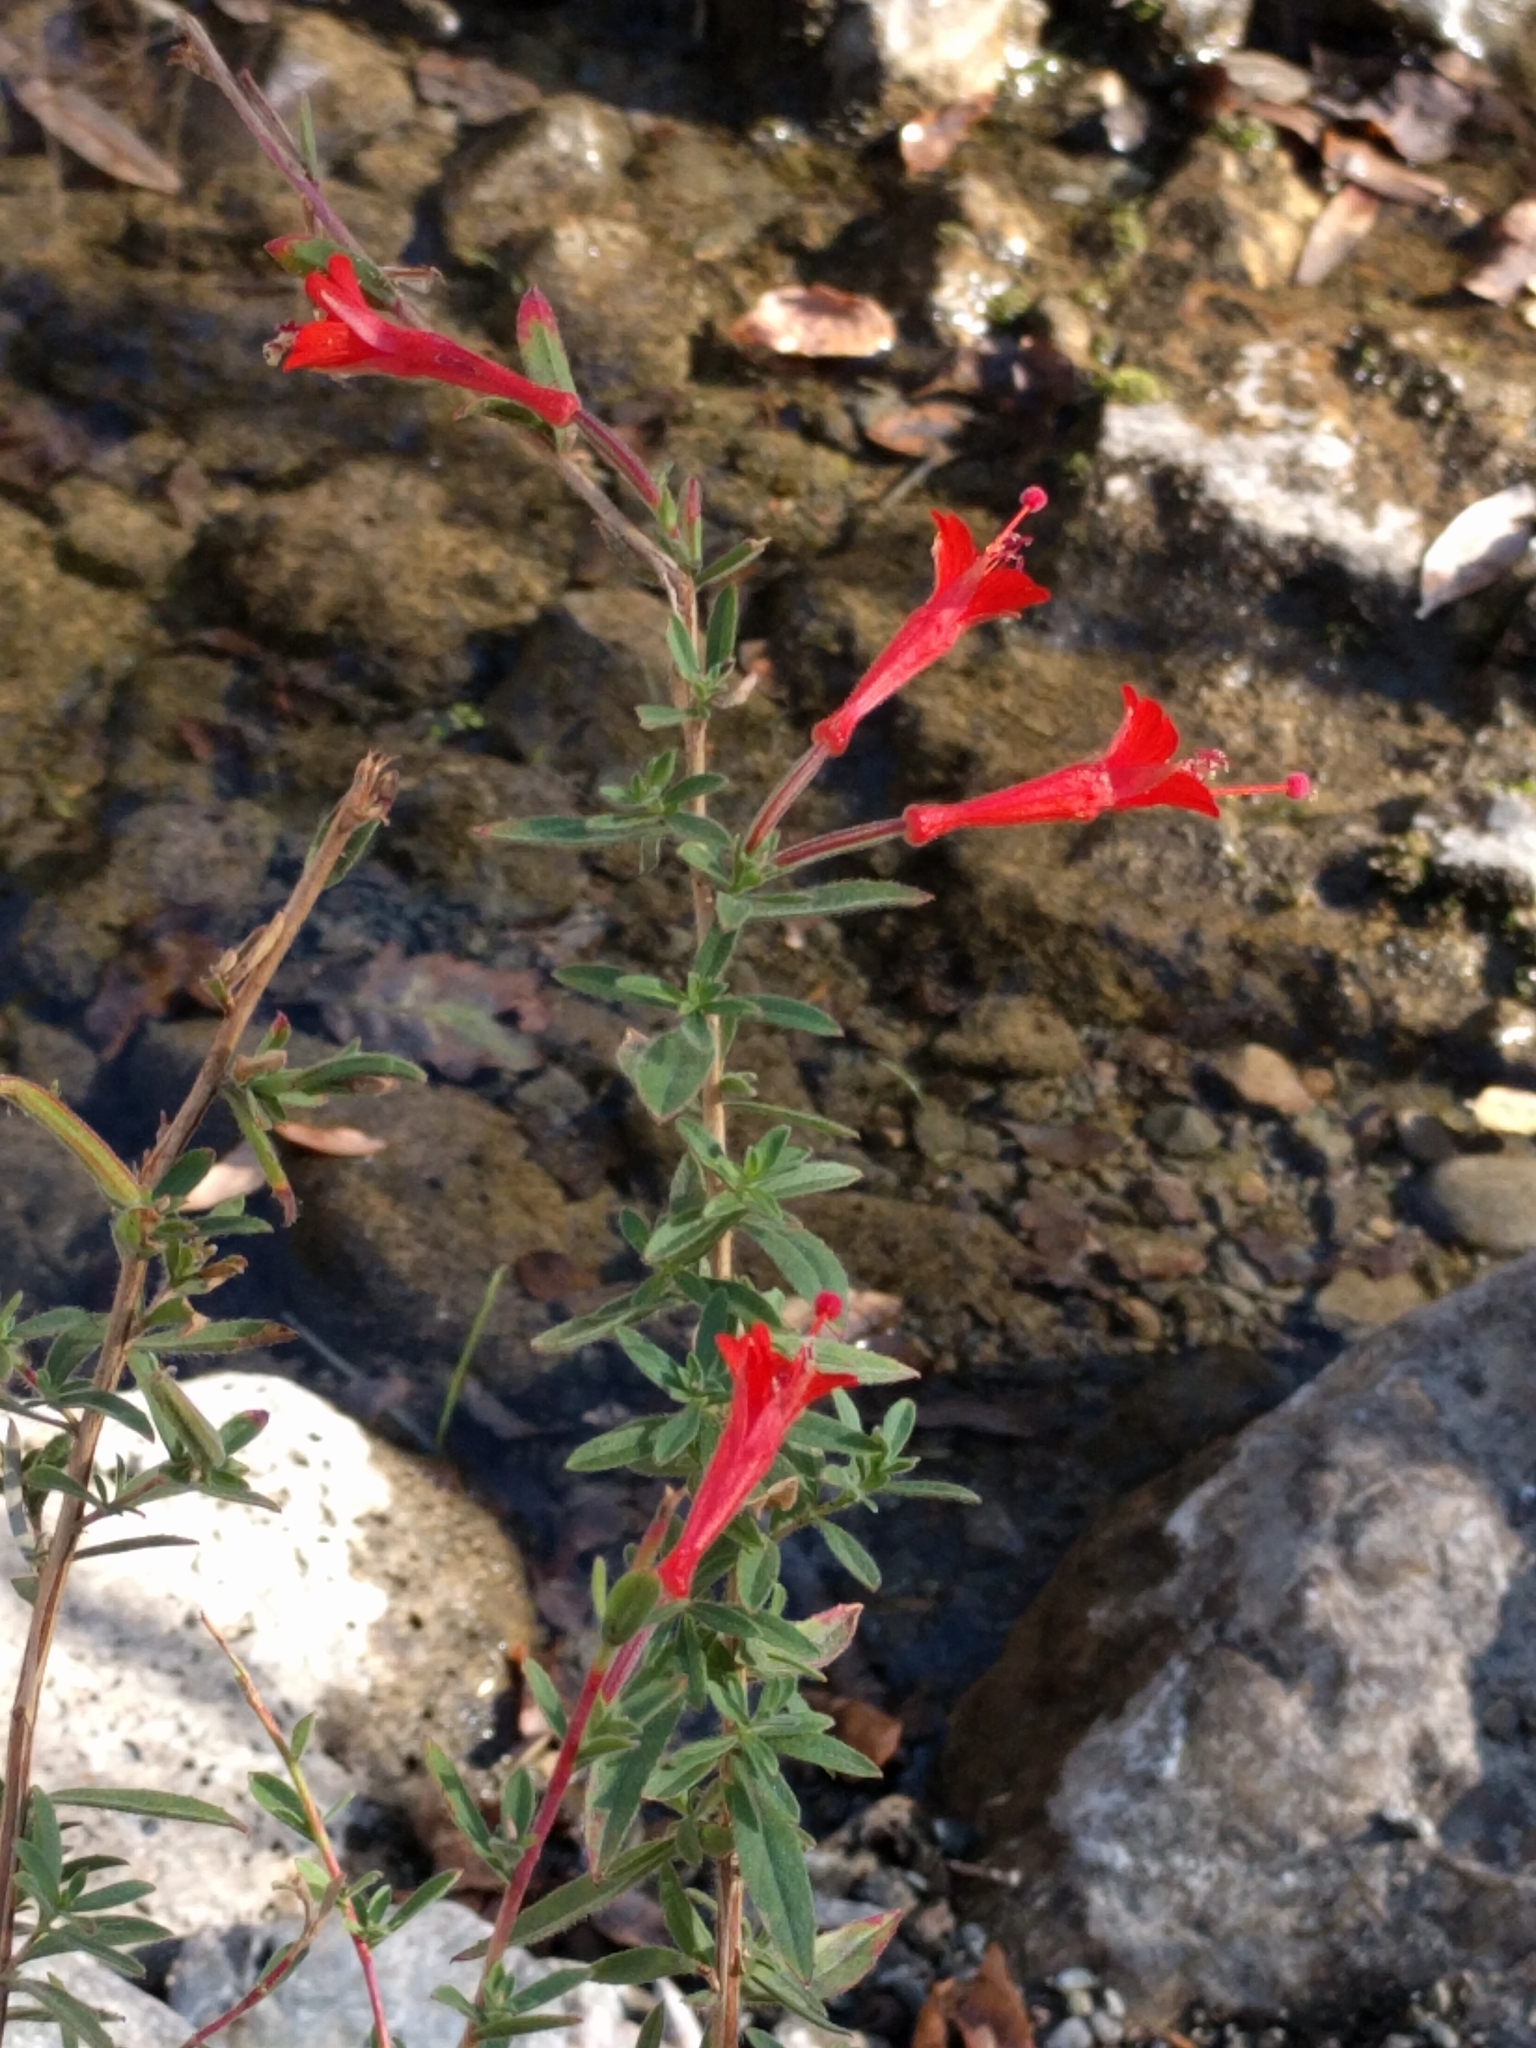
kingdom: Plantae
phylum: Tracheophyta
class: Magnoliopsida
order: Myrtales
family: Onagraceae
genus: Epilobium
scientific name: Epilobium canum
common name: California-fuchsia
